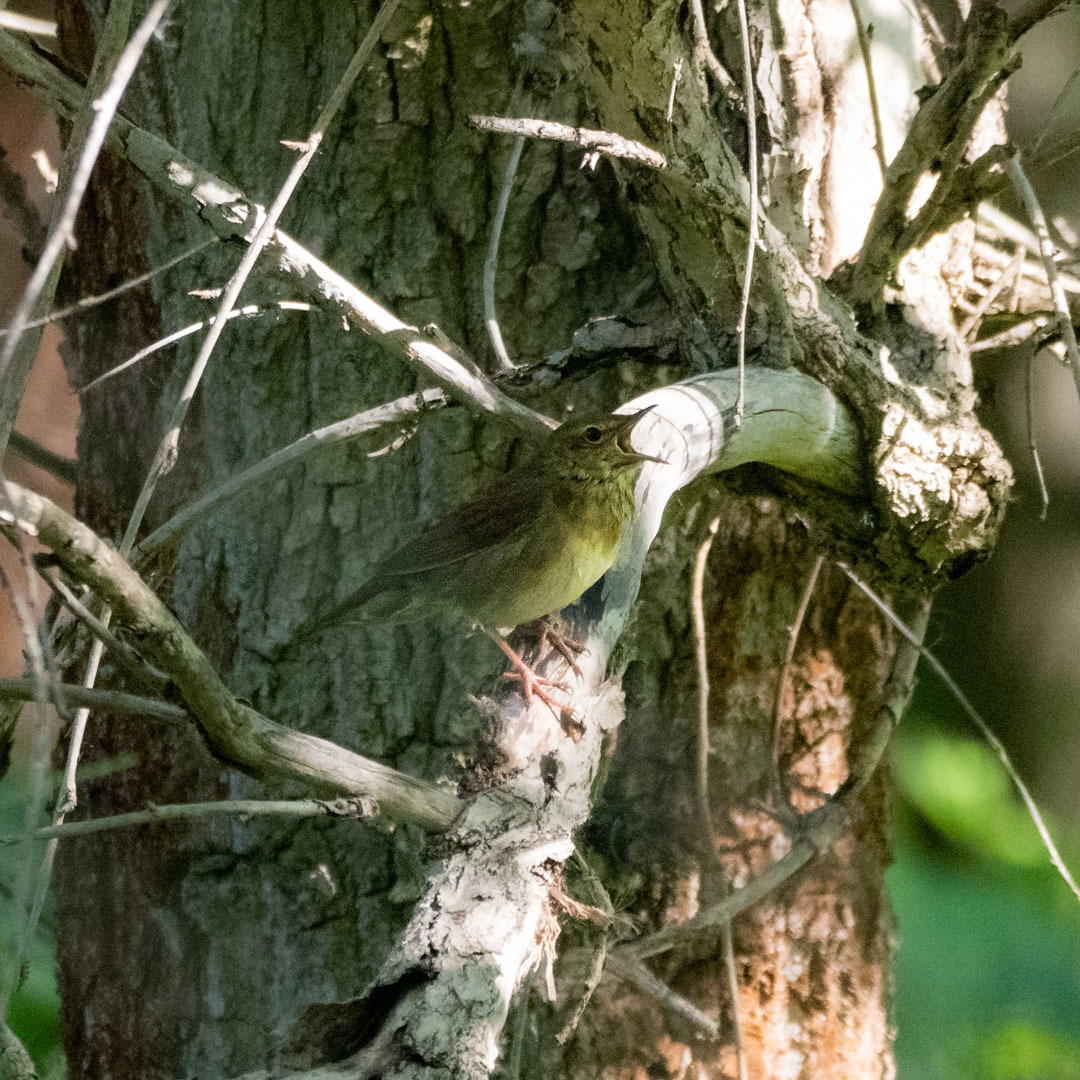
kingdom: Animalia
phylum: Chordata
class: Aves
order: Passeriformes
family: Locustellidae
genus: Locustella
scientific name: Locustella fluviatilis
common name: River warbler
